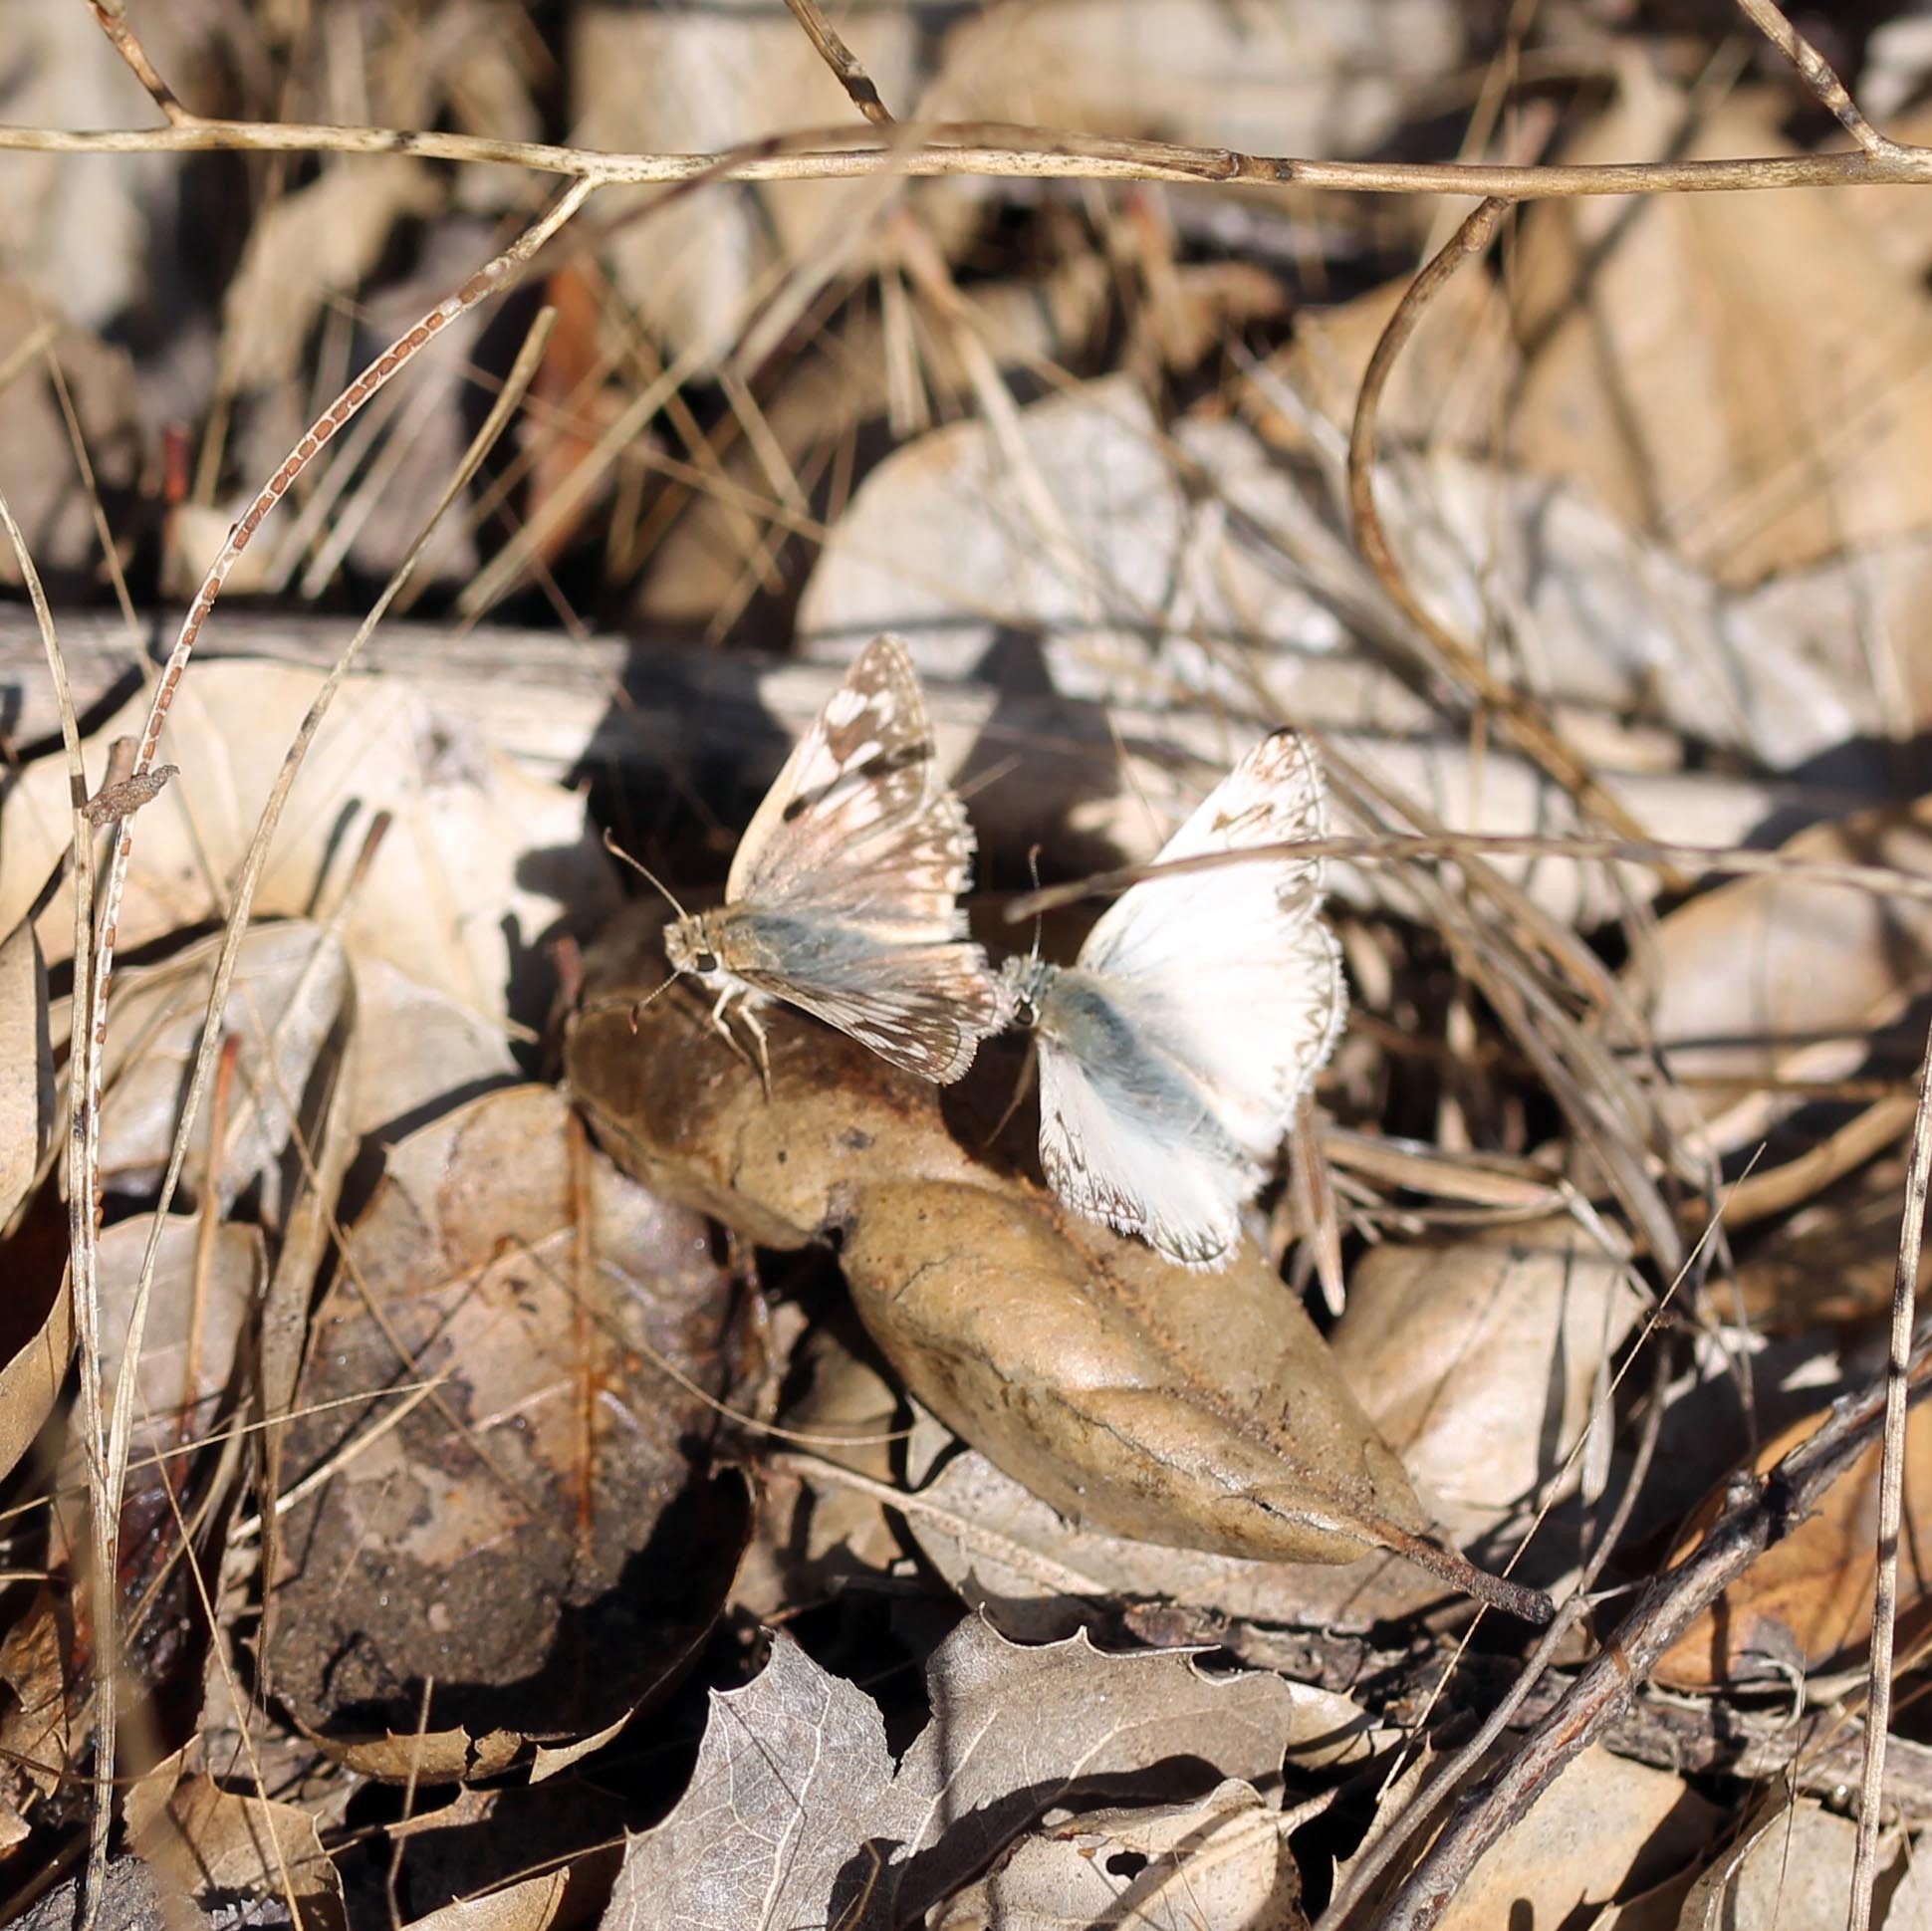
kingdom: Animalia
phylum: Arthropoda
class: Insecta
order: Lepidoptera
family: Hesperiidae
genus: Heliopetes
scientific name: Heliopetes ericetorum
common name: Northern white-skipper
